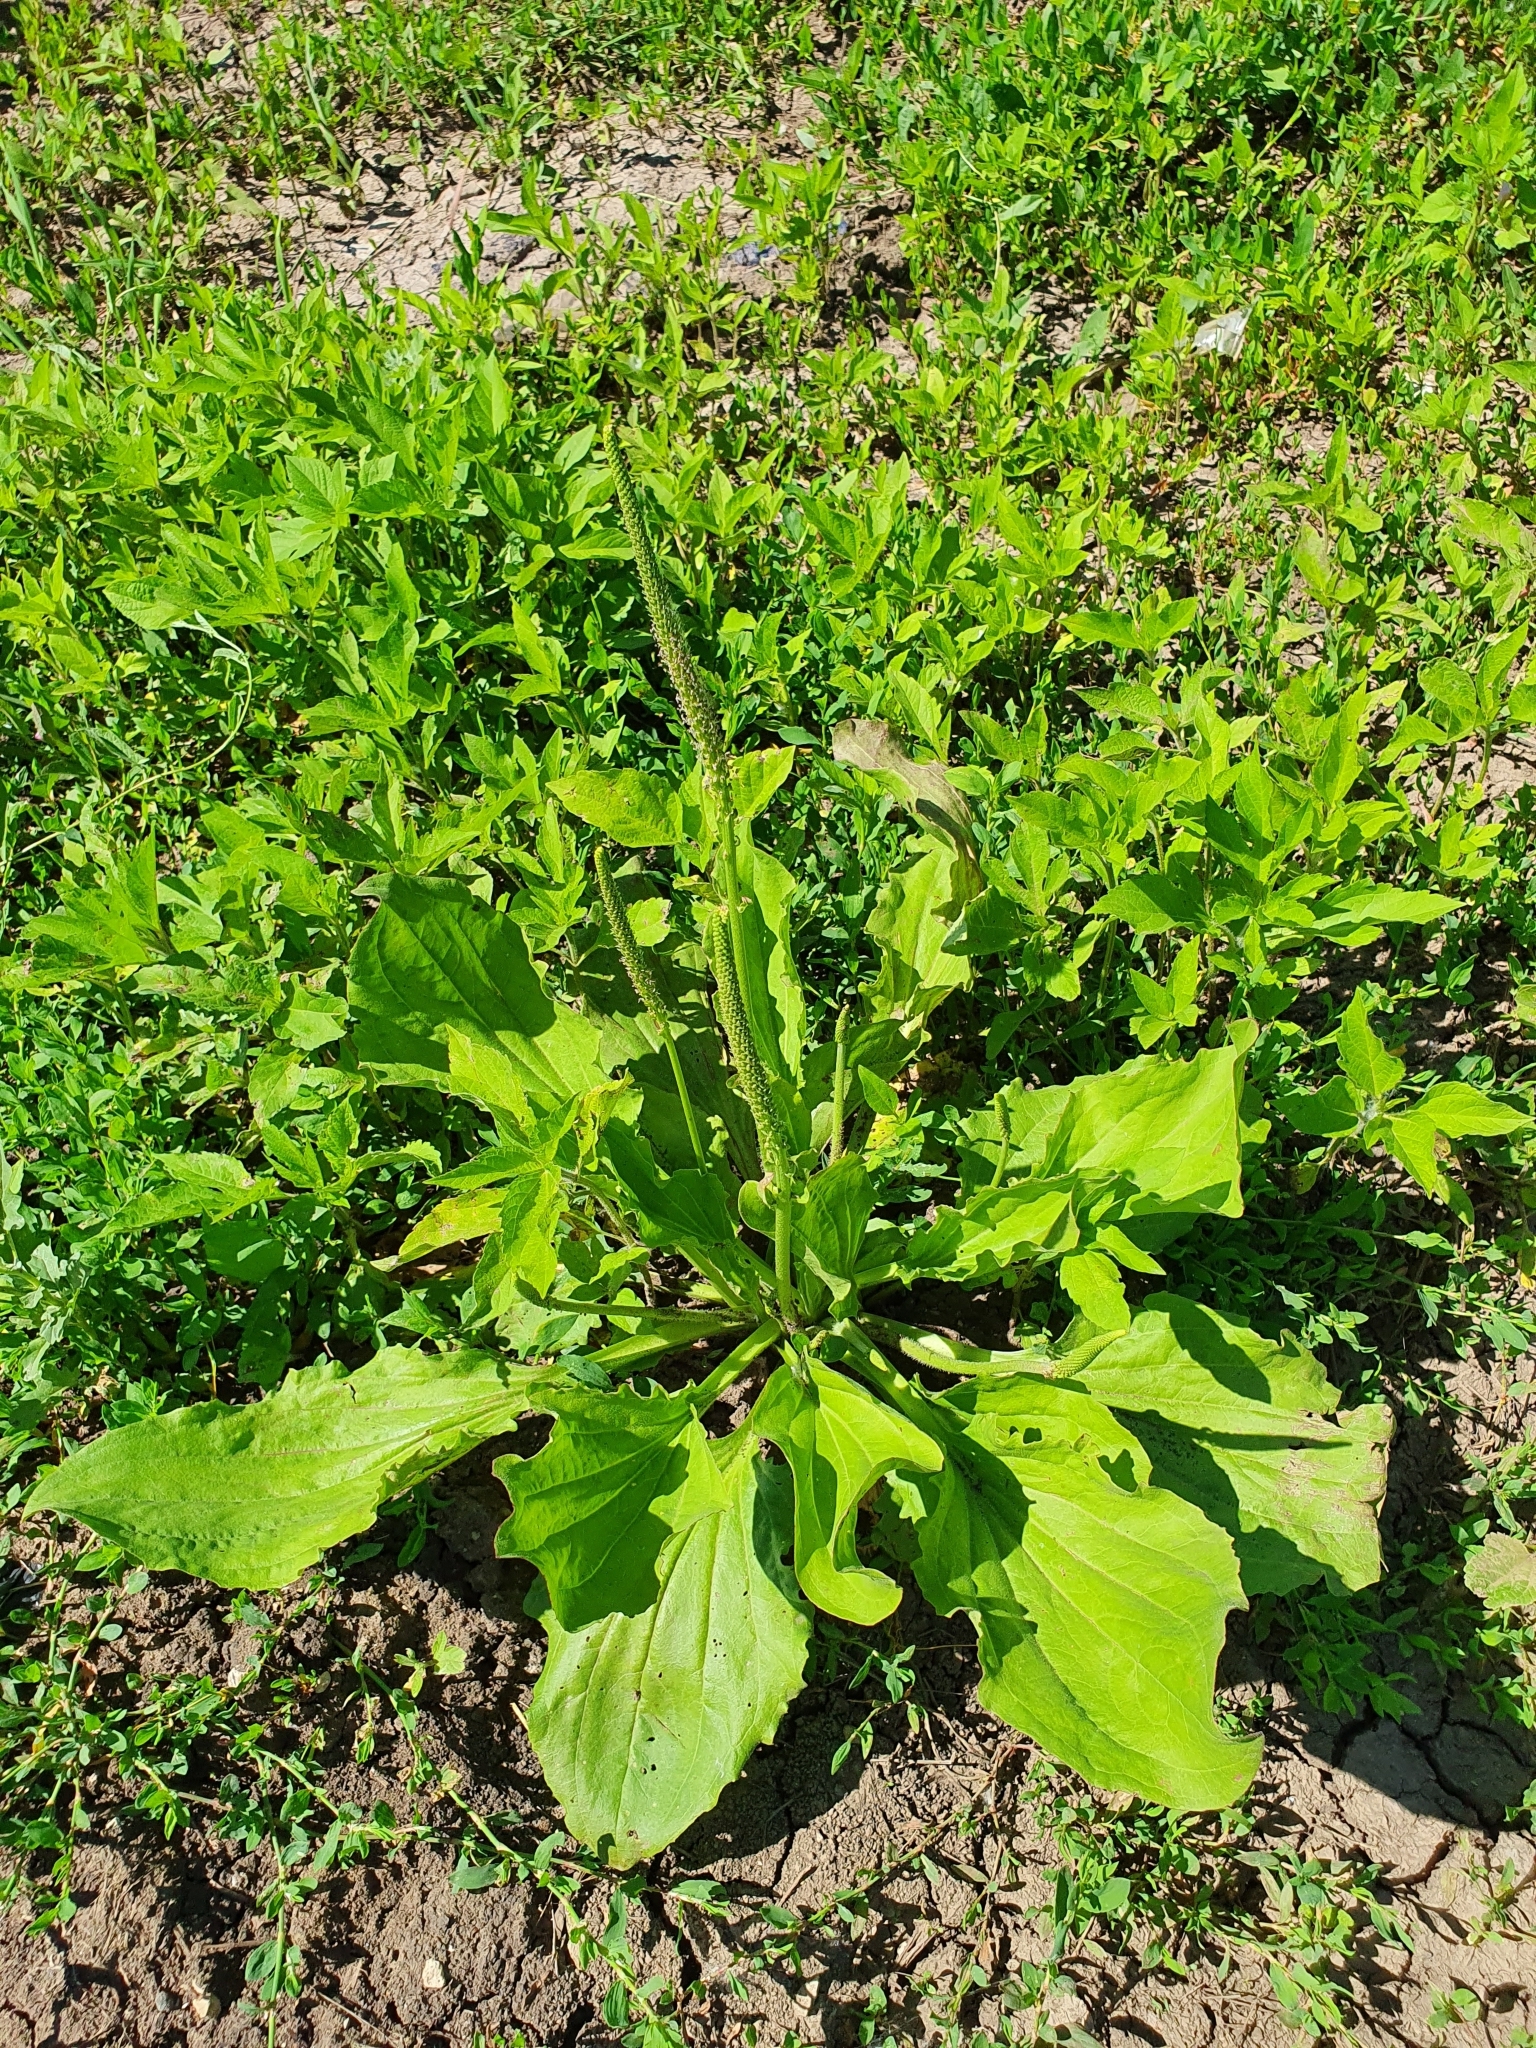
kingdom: Plantae
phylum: Tracheophyta
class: Magnoliopsida
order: Lamiales
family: Plantaginaceae
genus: Plantago
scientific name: Plantago major
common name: Common plantain
